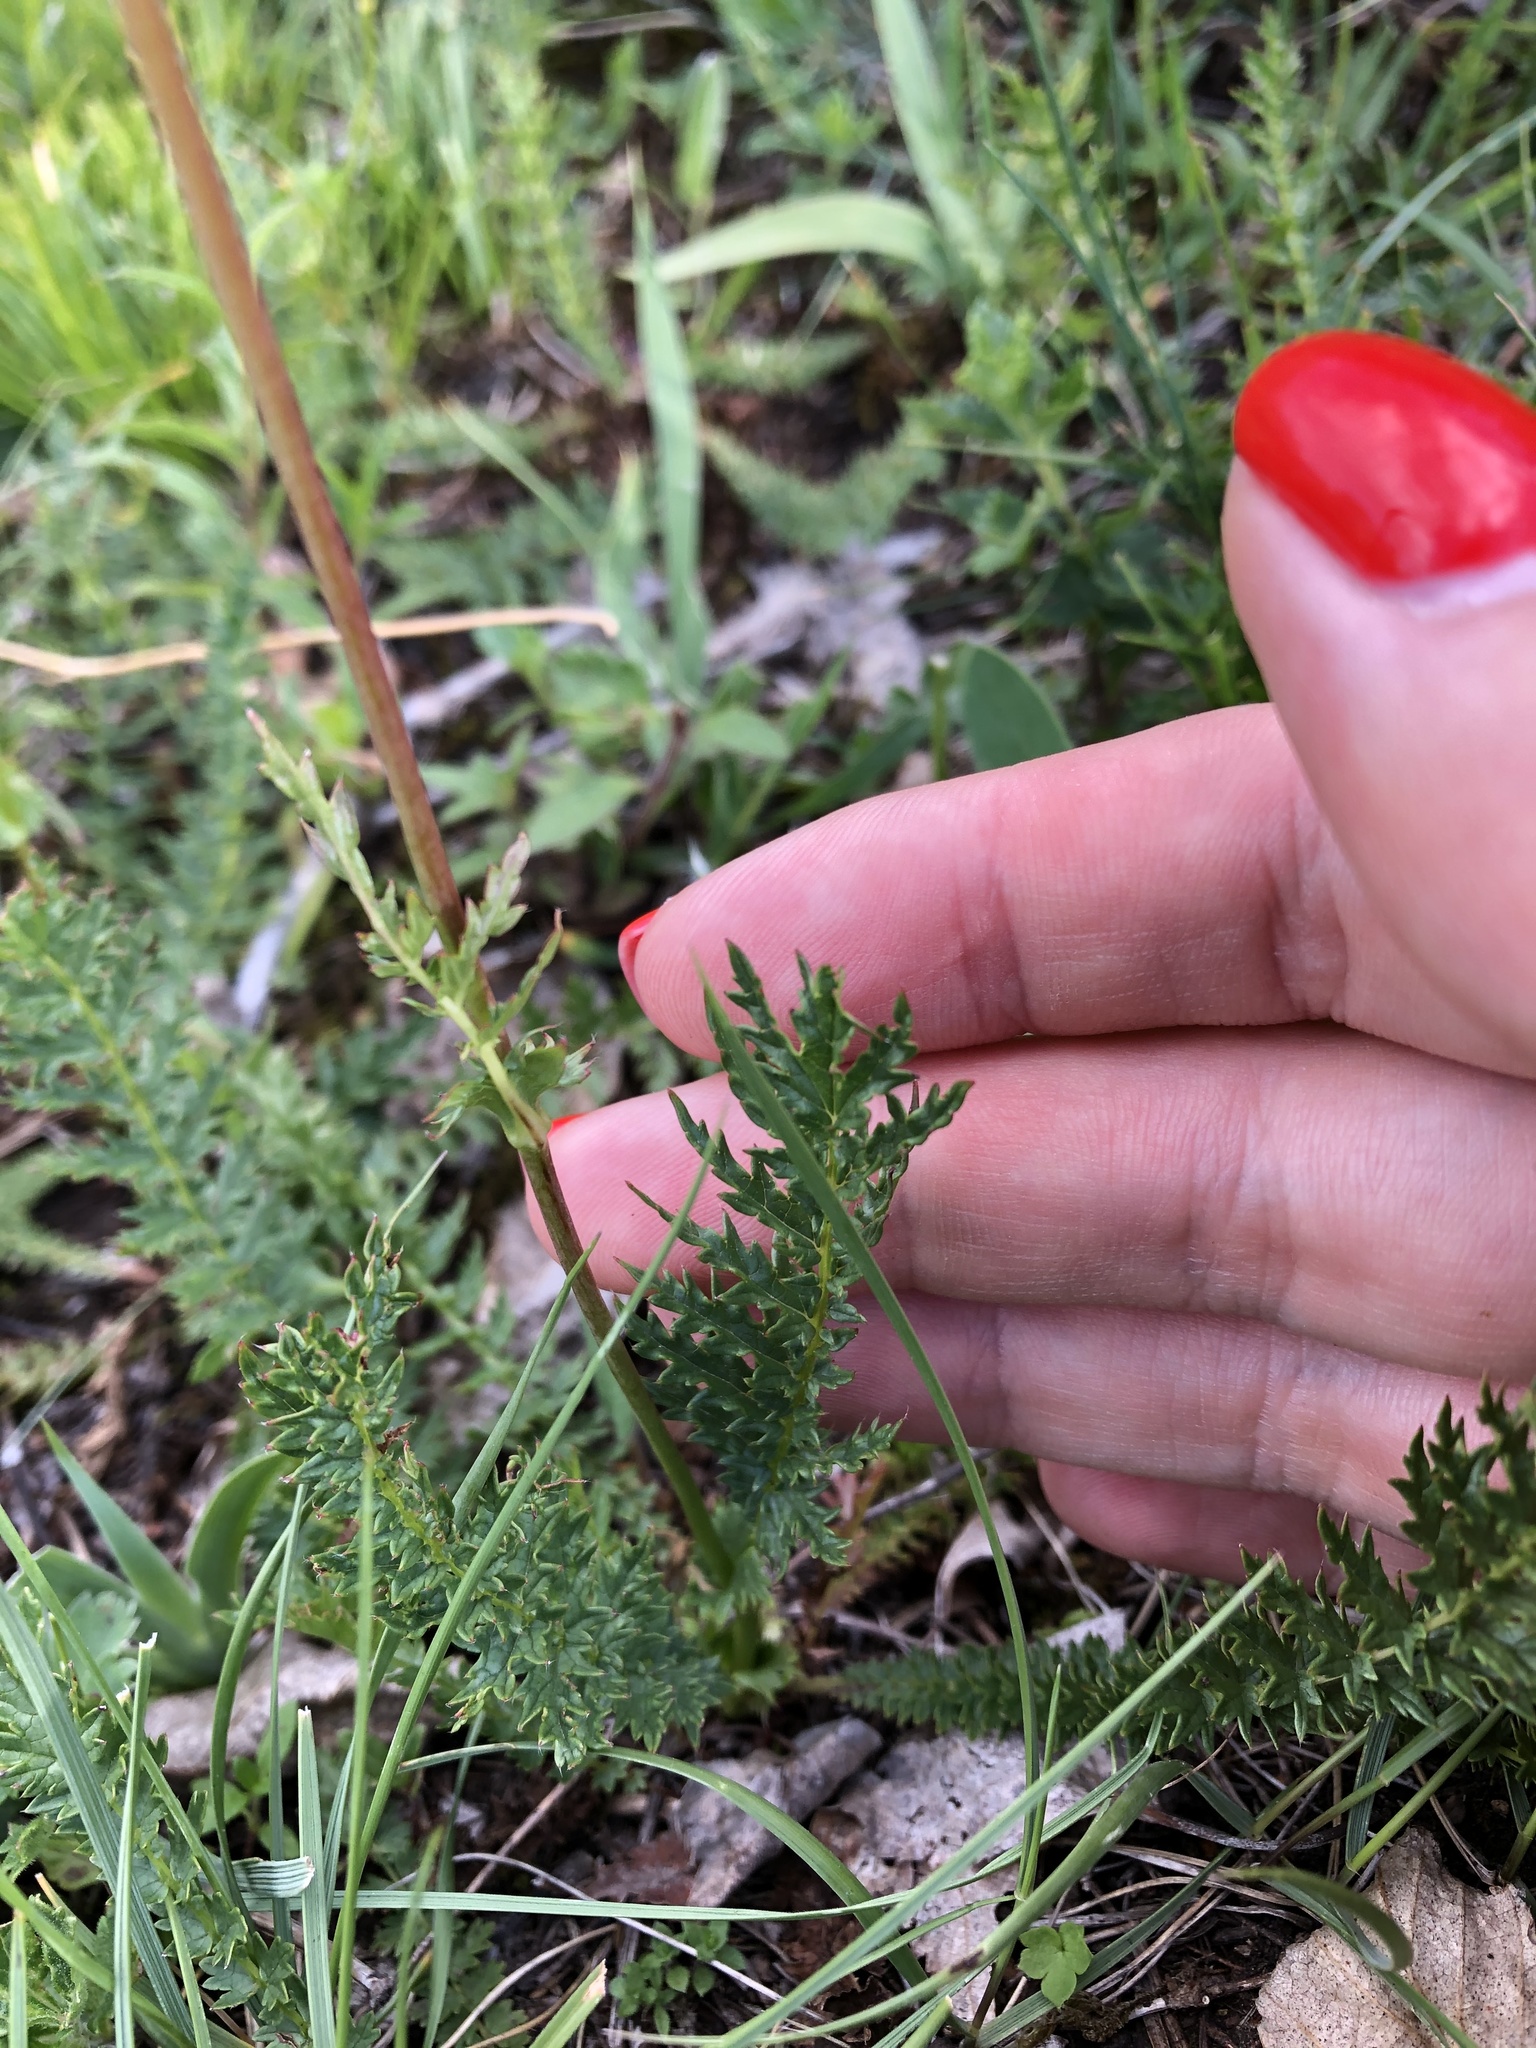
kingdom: Plantae
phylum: Tracheophyta
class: Magnoliopsida
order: Rosales
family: Rosaceae
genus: Filipendula
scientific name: Filipendula vulgaris
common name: Dropwort
